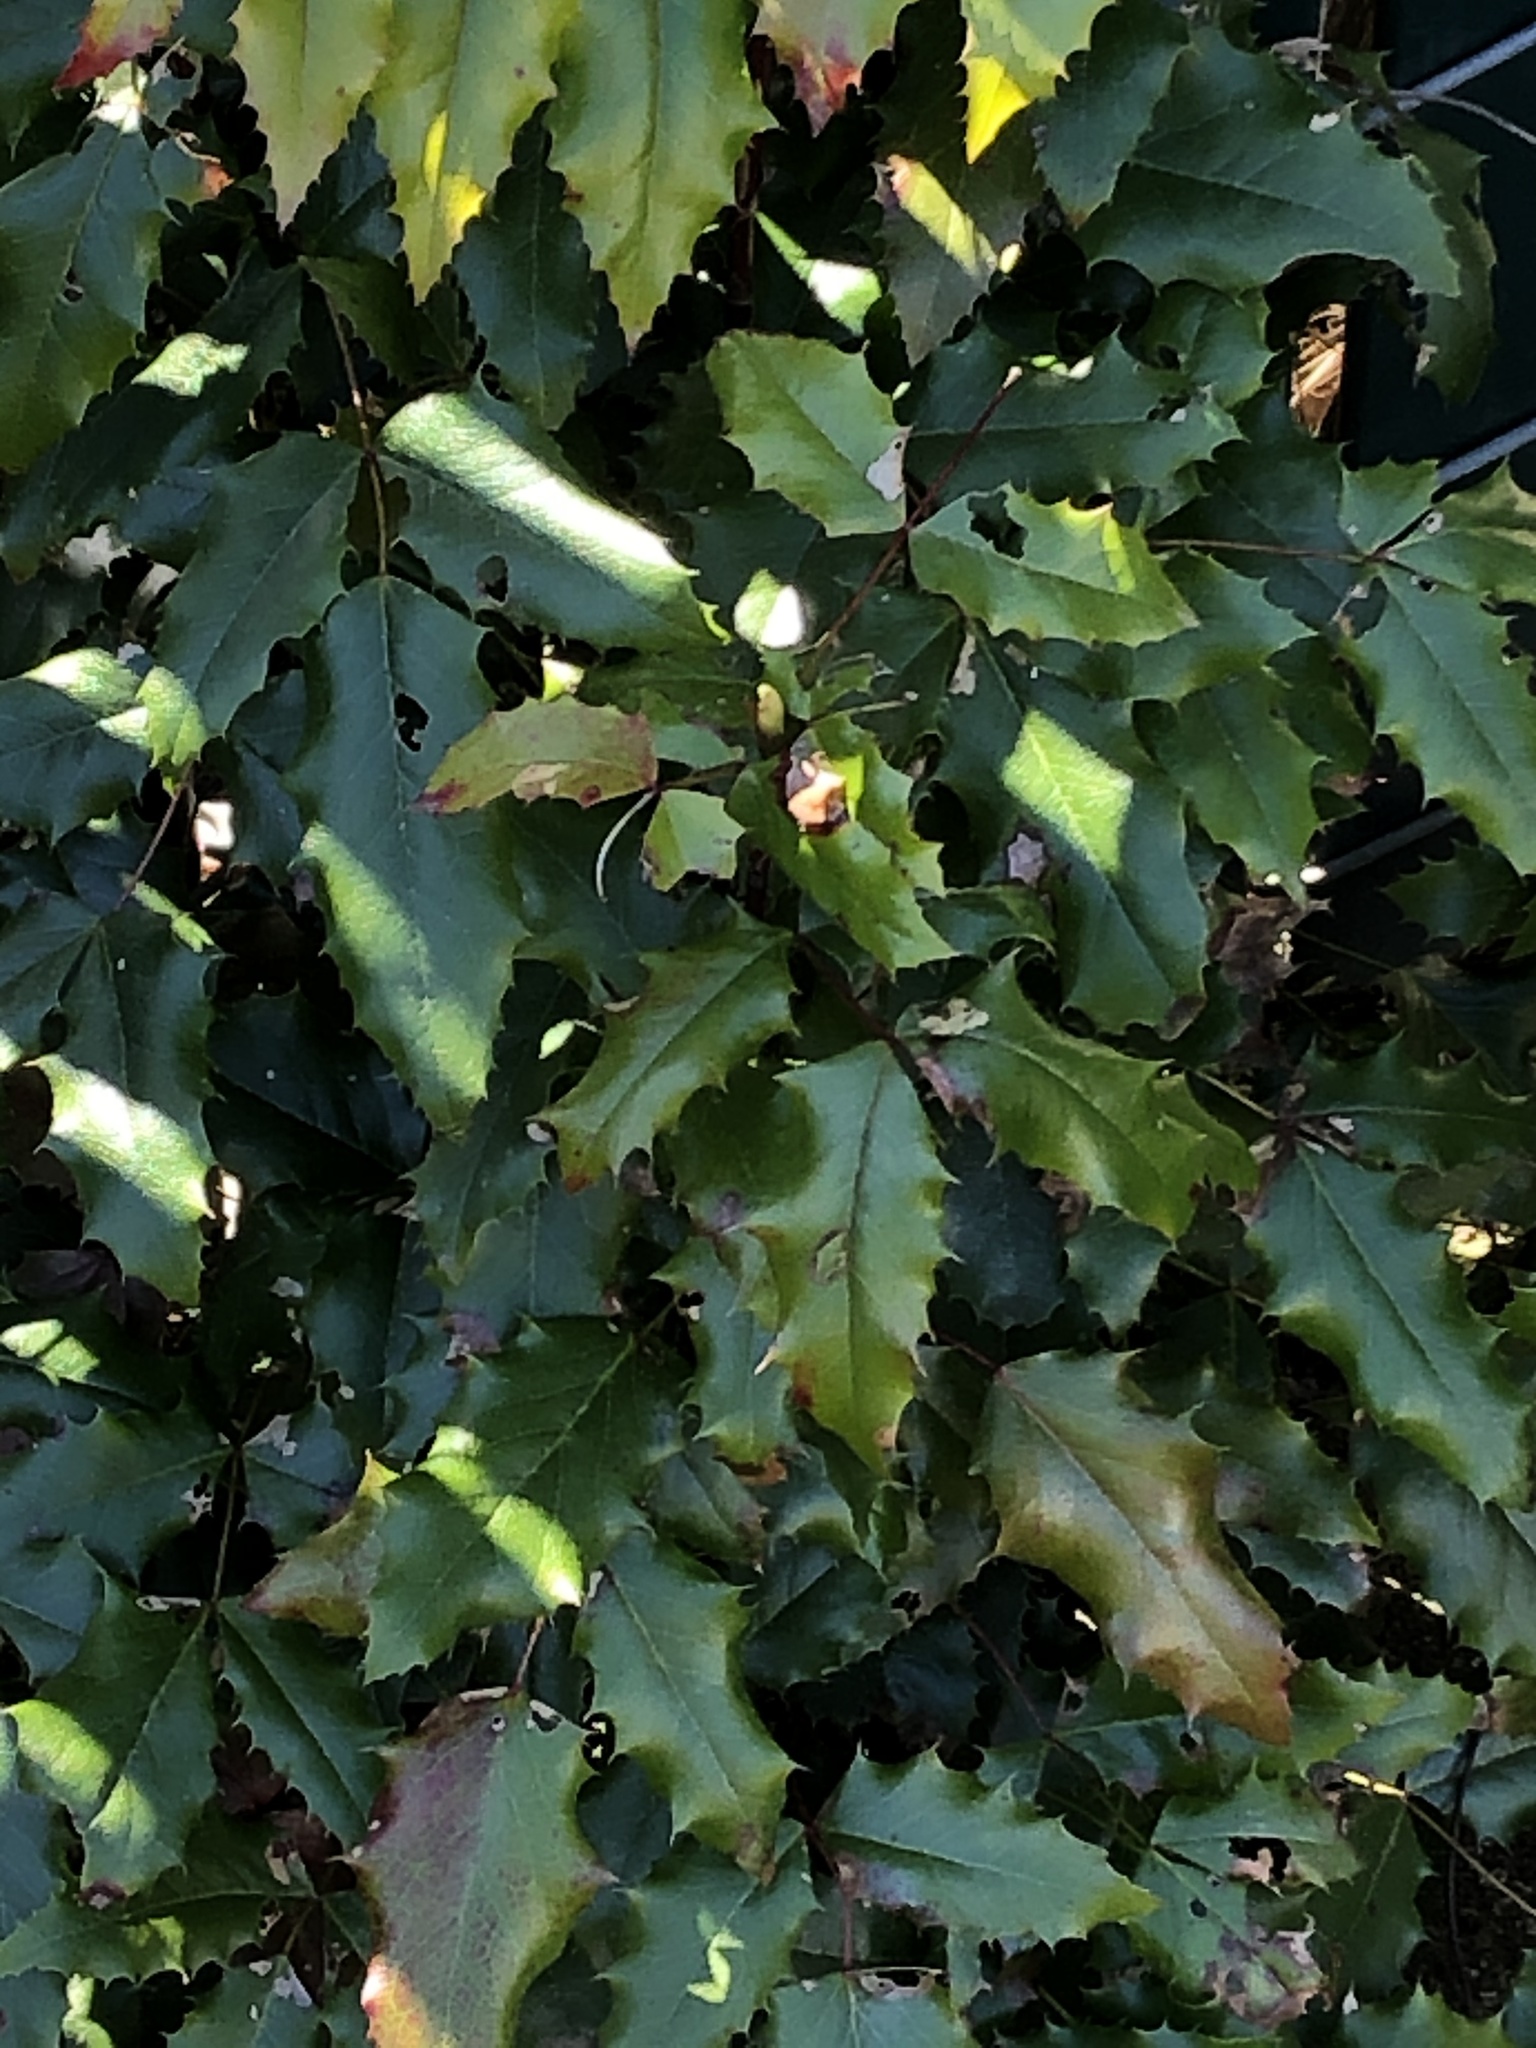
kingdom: Plantae
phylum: Tracheophyta
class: Magnoliopsida
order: Ranunculales
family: Berberidaceae
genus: Mahonia
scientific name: Mahonia aquifolium
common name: Oregon-grape
